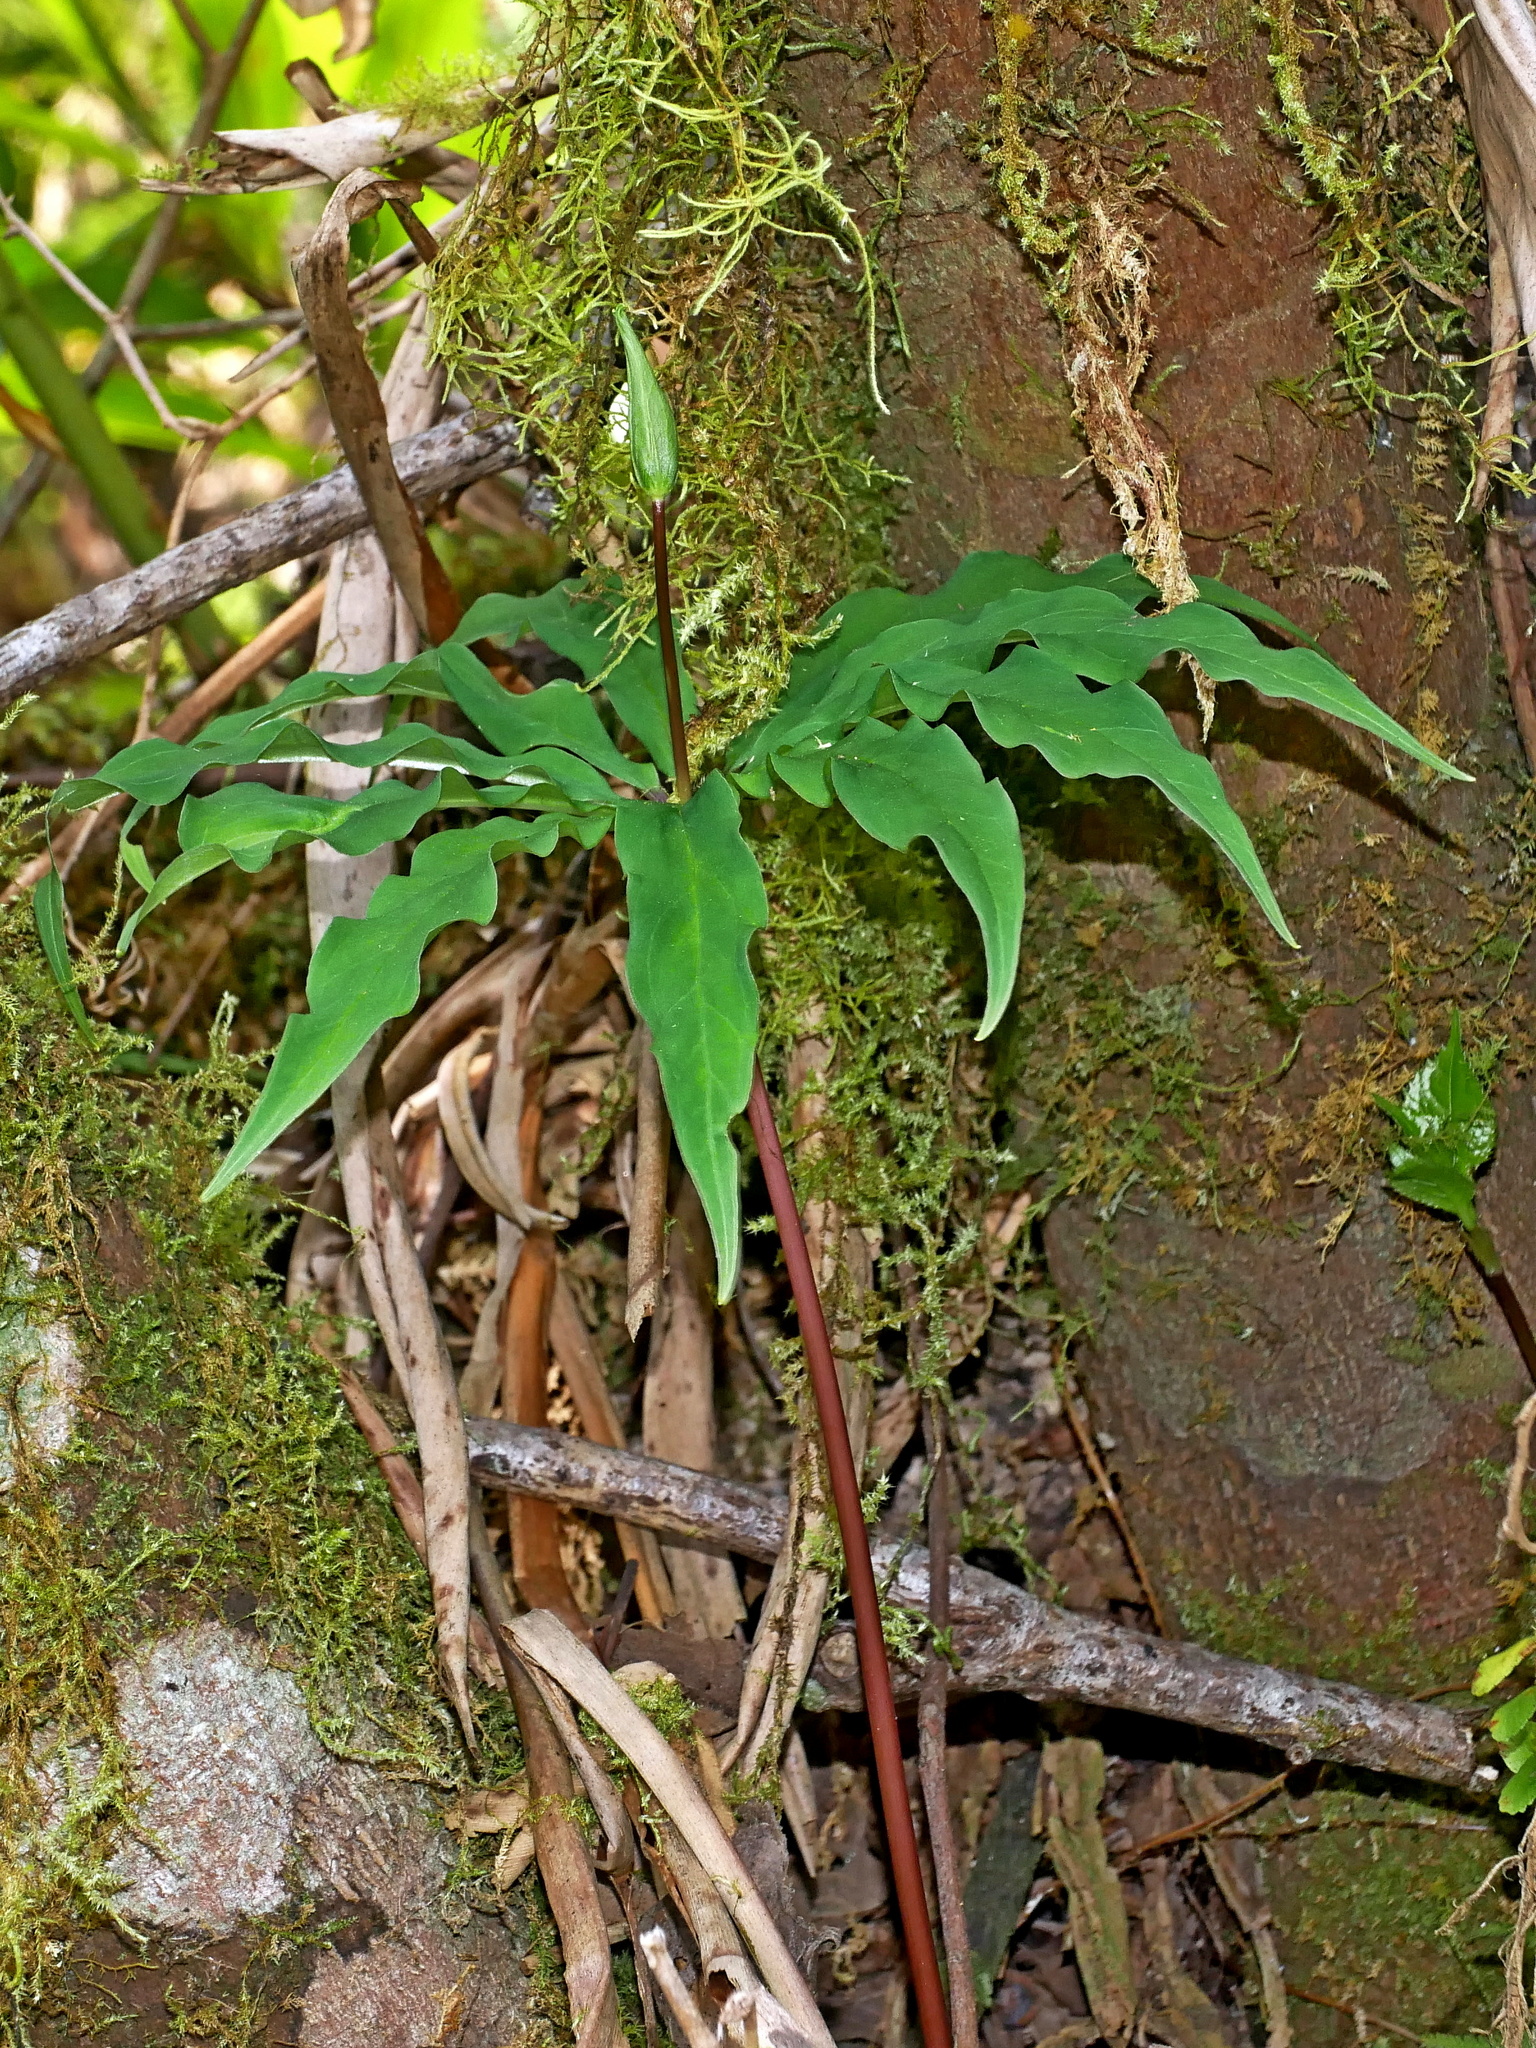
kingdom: Plantae
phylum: Tracheophyta
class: Liliopsida
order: Liliales
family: Melanthiaceae
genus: Paris
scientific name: Paris lancifolia
